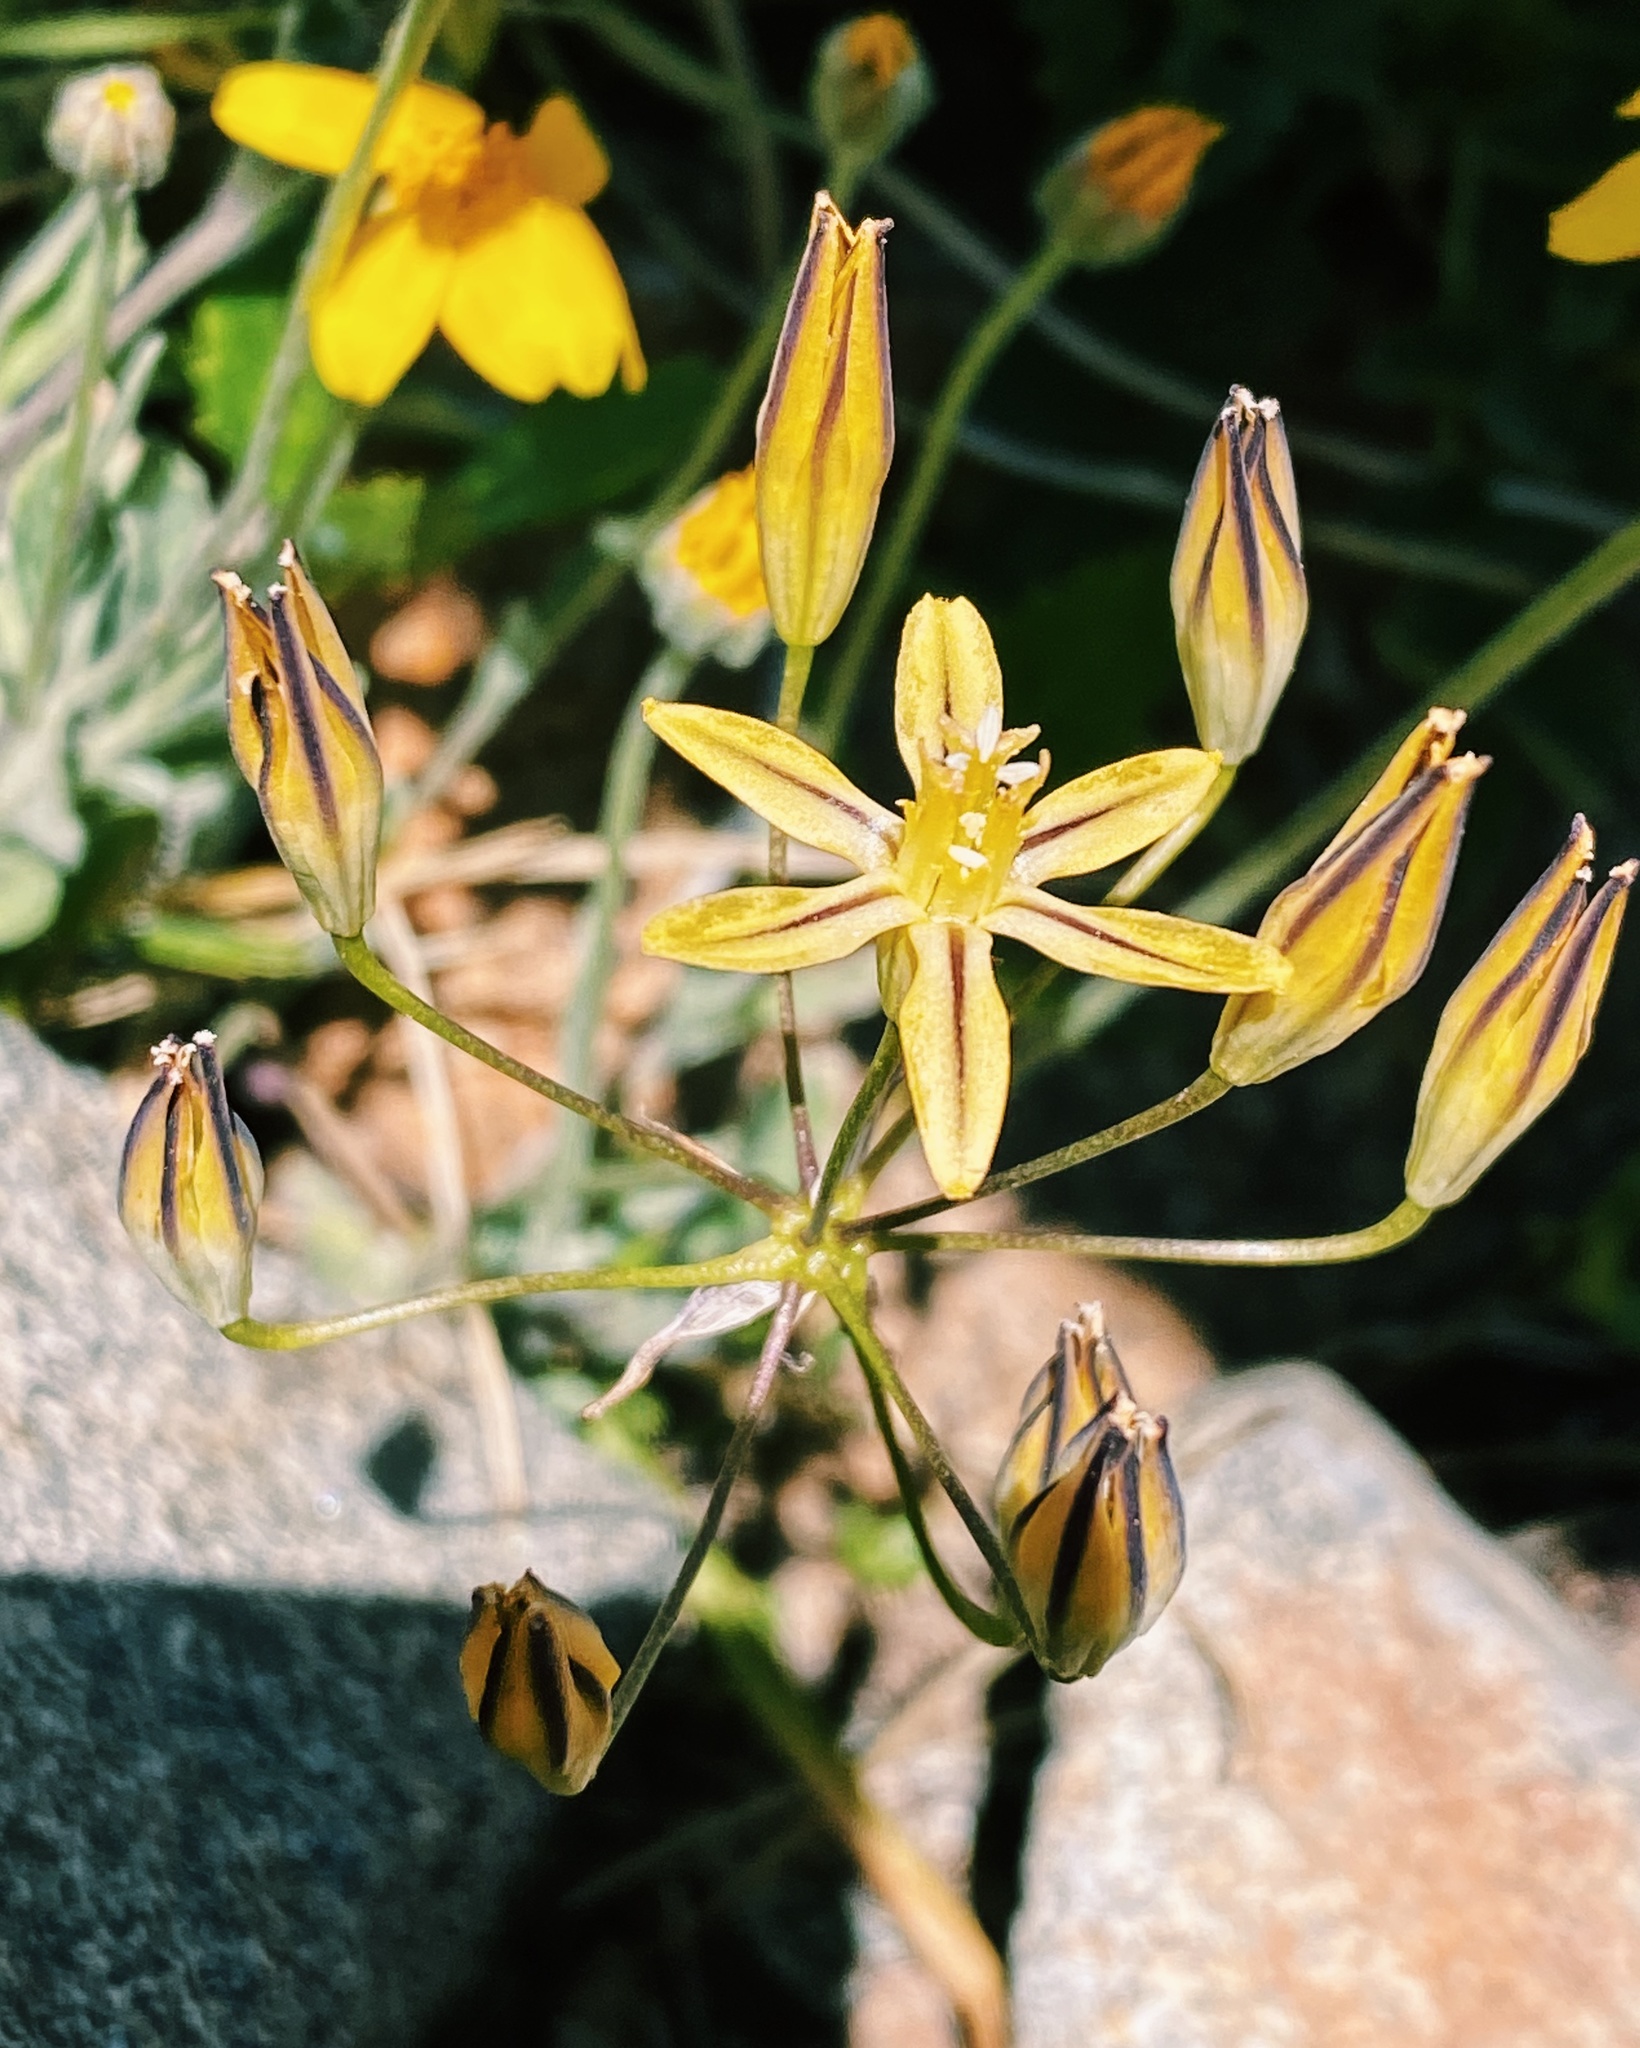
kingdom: Plantae
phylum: Tracheophyta
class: Liliopsida
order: Asparagales
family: Asparagaceae
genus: Triteleia
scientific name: Triteleia ixioides
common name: Yellow-brodiaea
